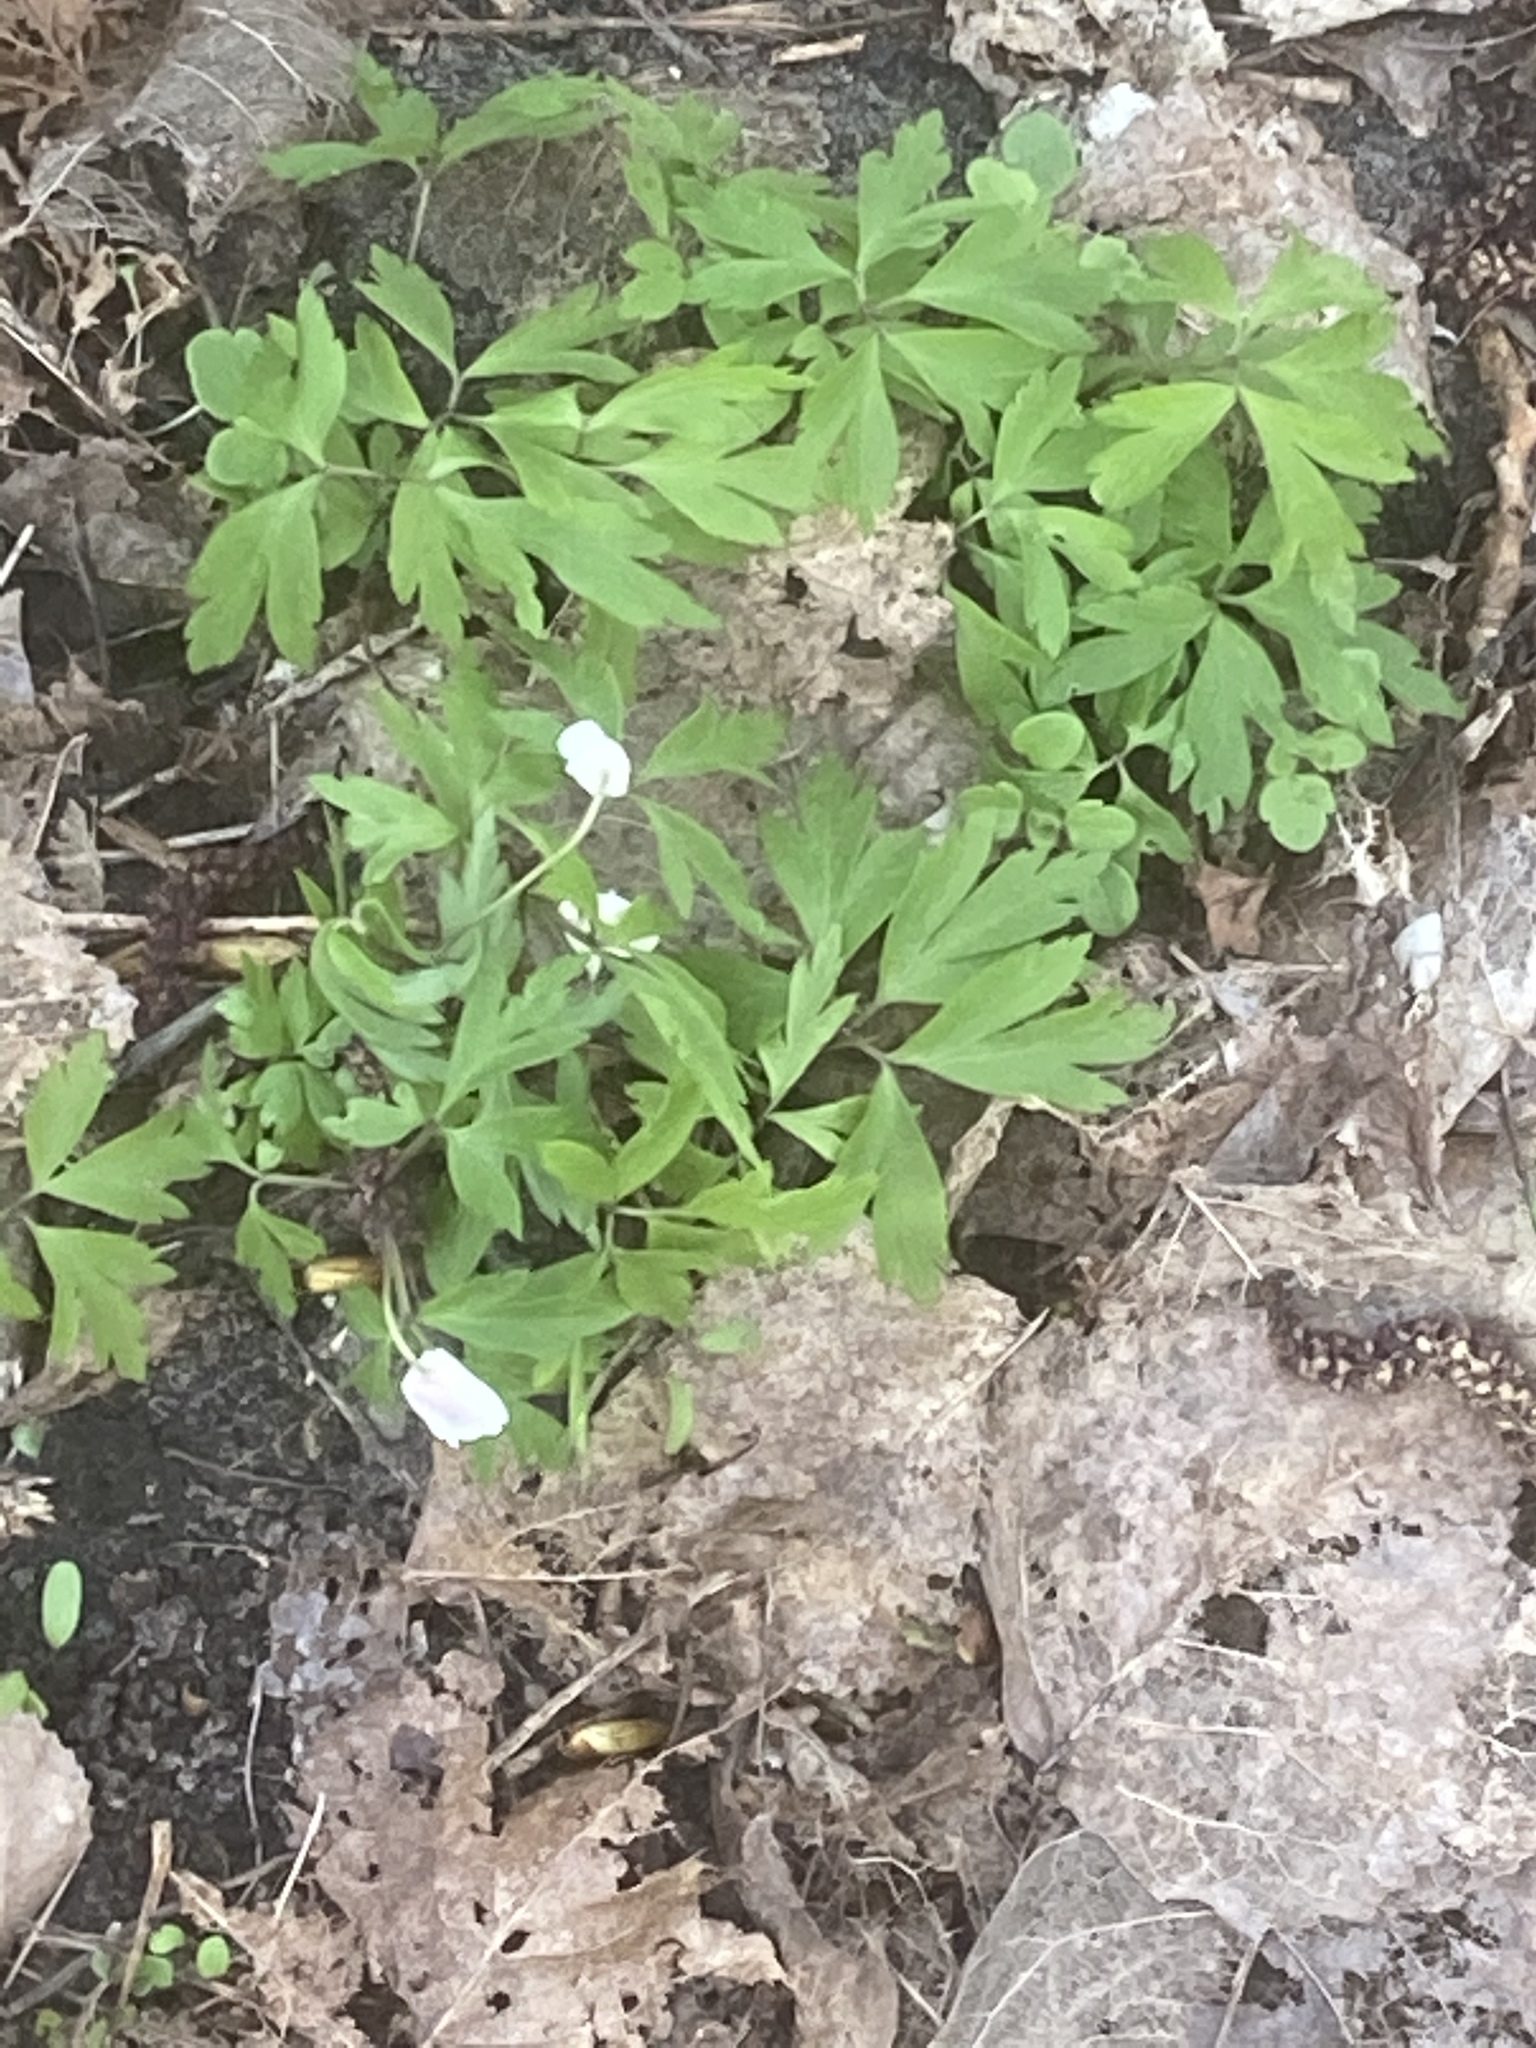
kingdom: Plantae
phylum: Tracheophyta
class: Magnoliopsida
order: Ranunculales
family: Ranunculaceae
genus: Anemone
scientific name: Anemone nemorosa
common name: Wood anemone
